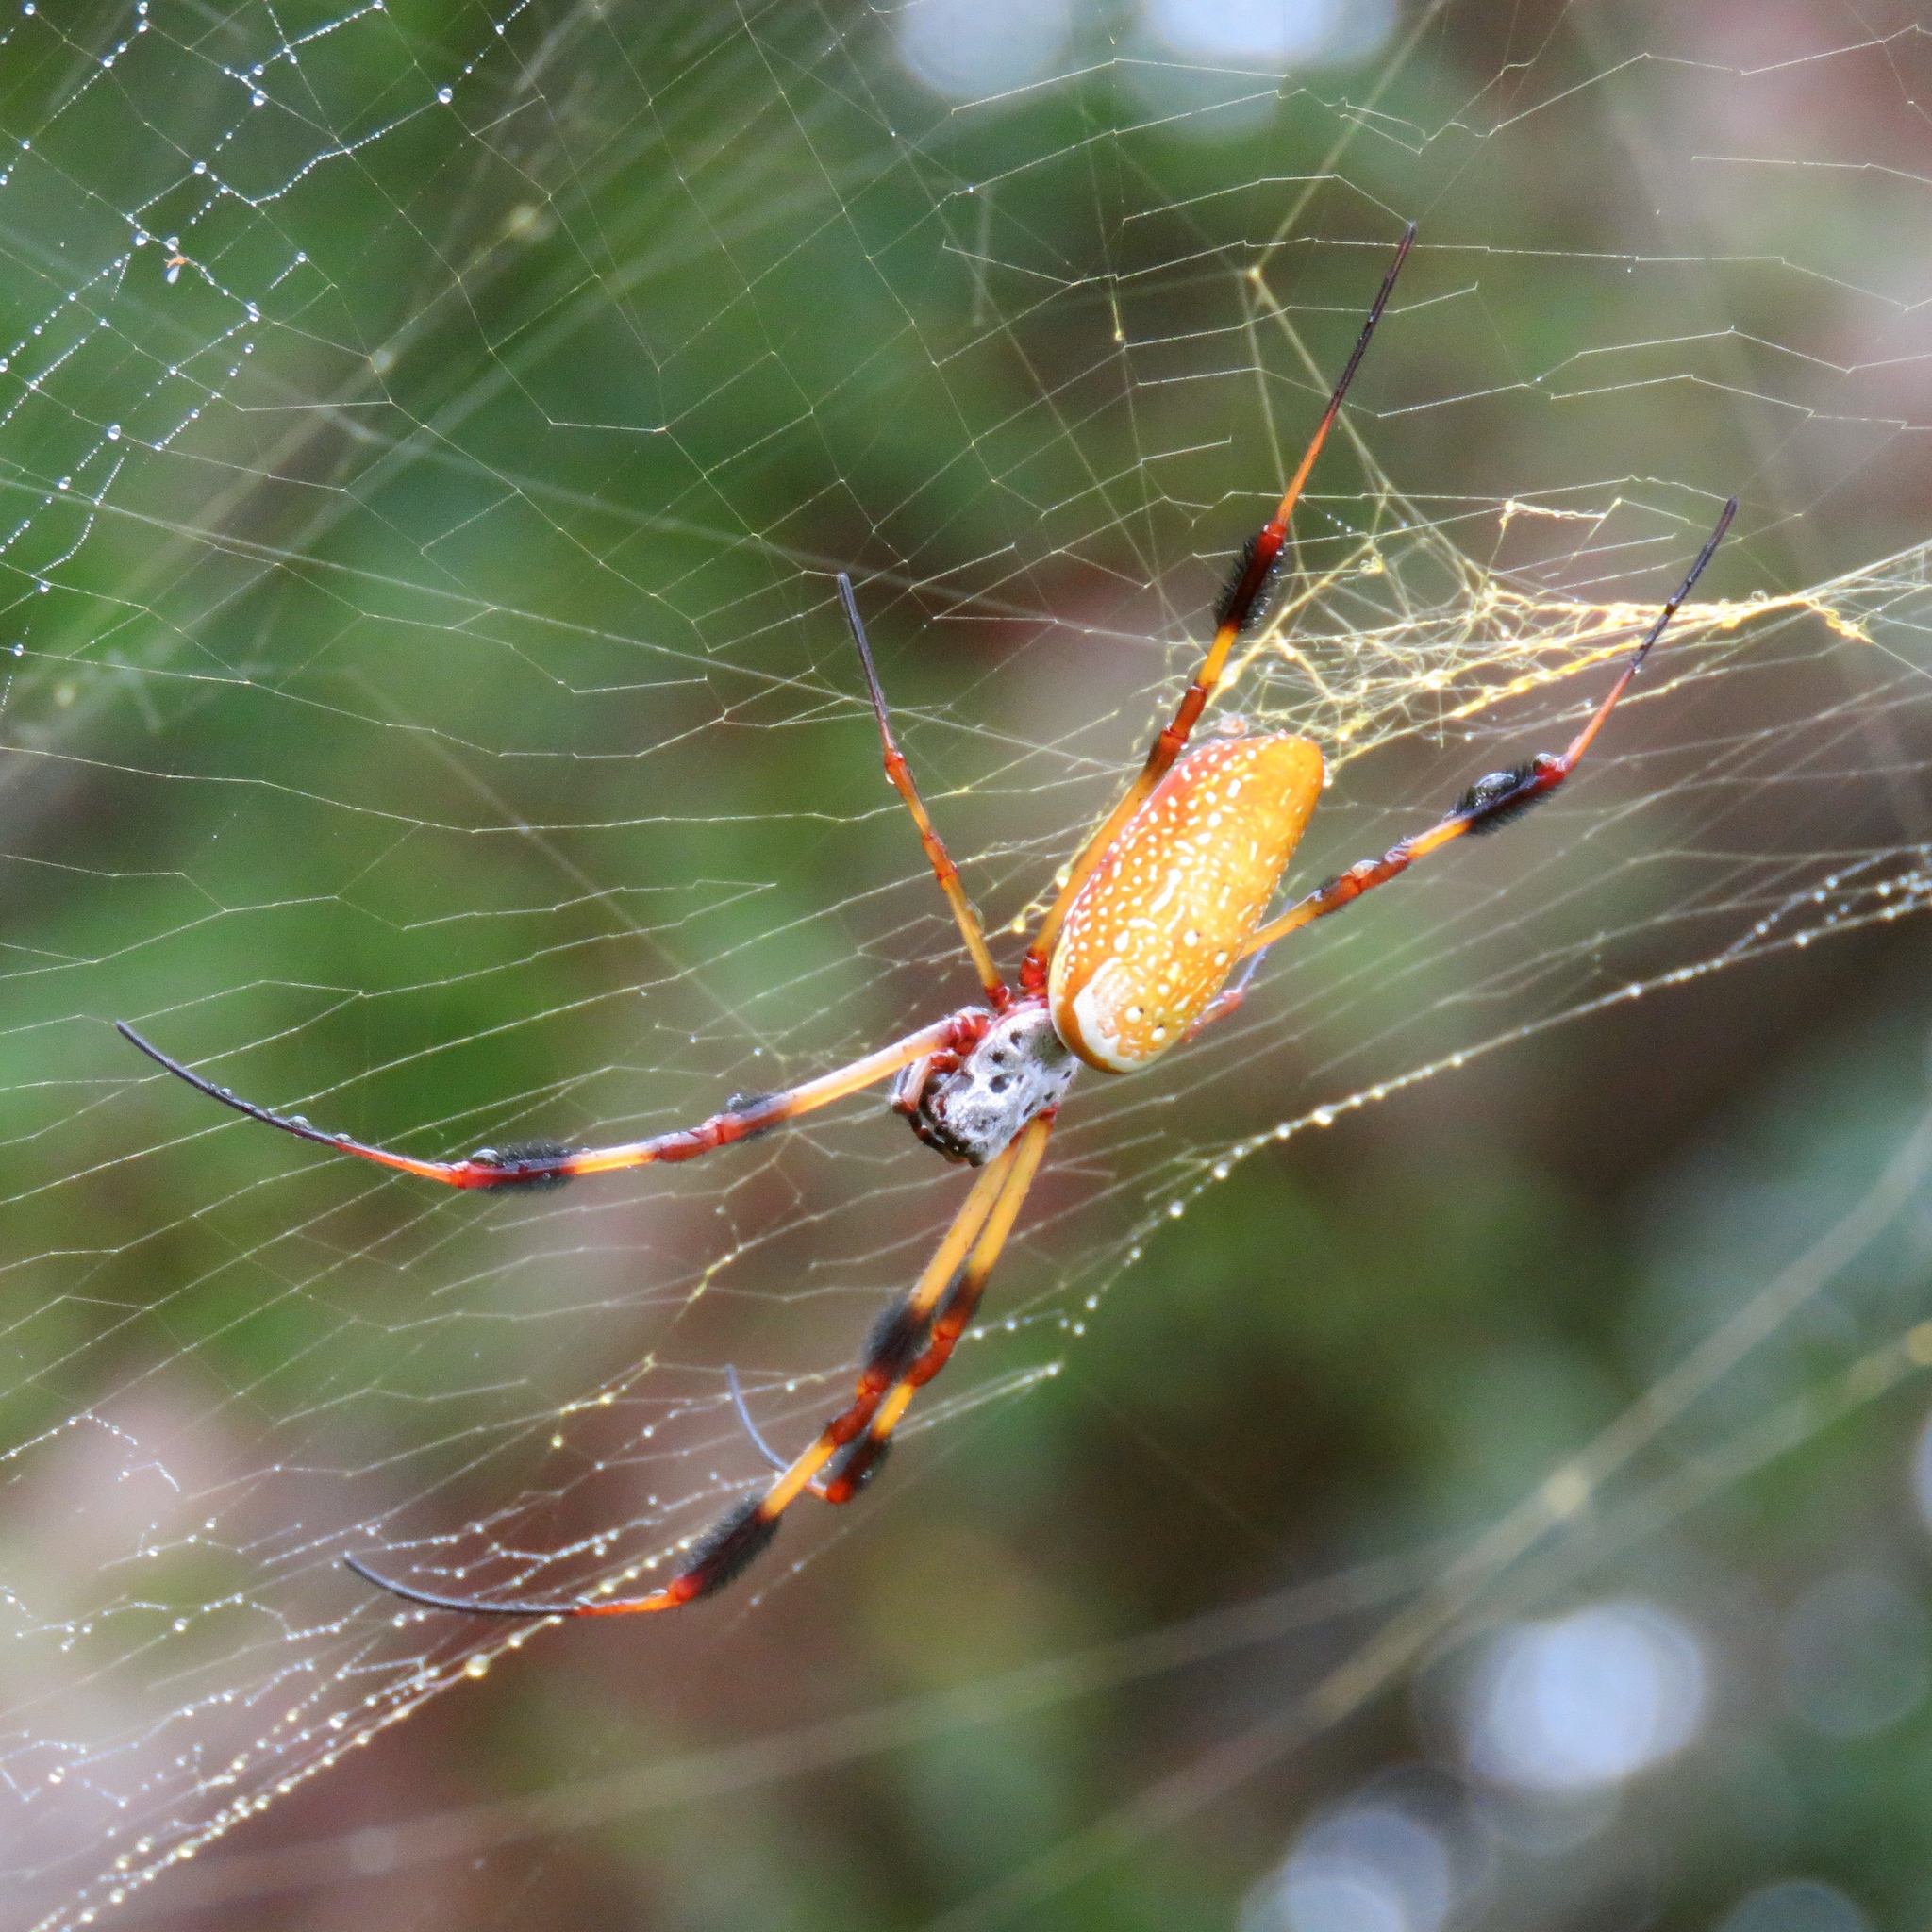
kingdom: Animalia
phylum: Arthropoda
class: Arachnida
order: Araneae
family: Araneidae
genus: Trichonephila
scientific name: Trichonephila clavipes
